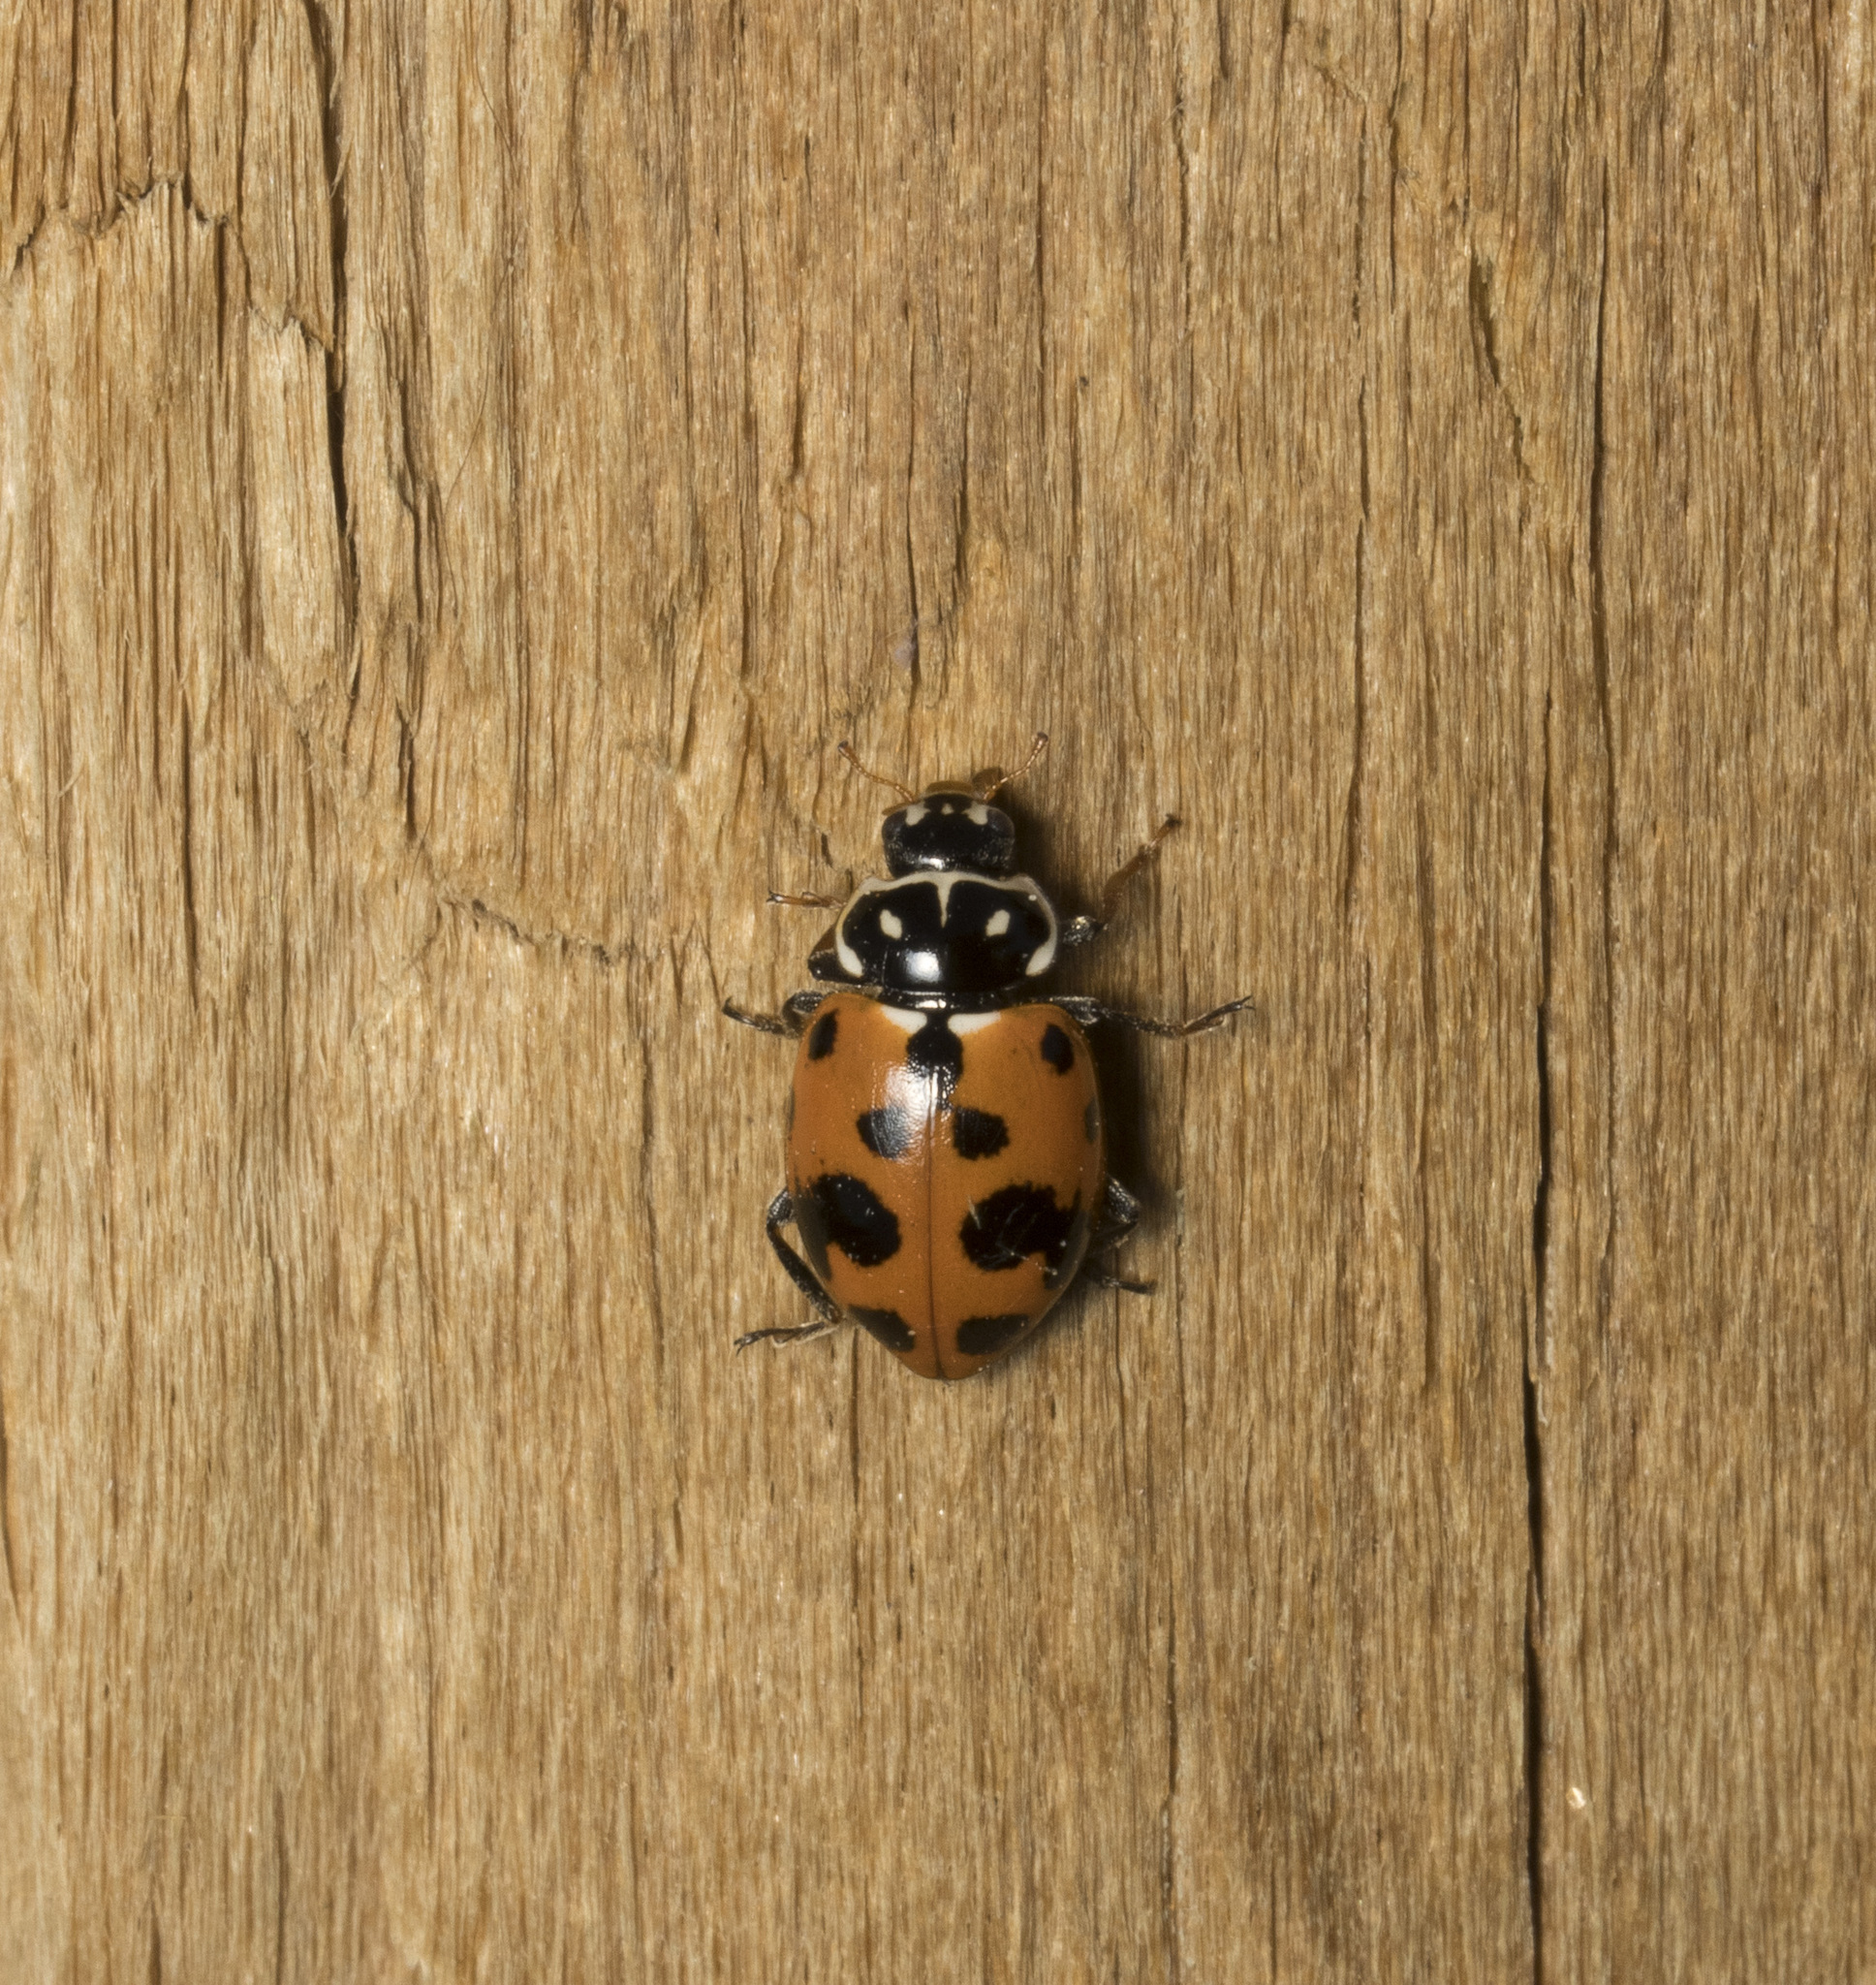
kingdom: Animalia
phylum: Arthropoda
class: Insecta
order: Coleoptera
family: Coccinellidae
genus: Hippodamia
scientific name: Hippodamia variegata
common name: Ladybird beetle
